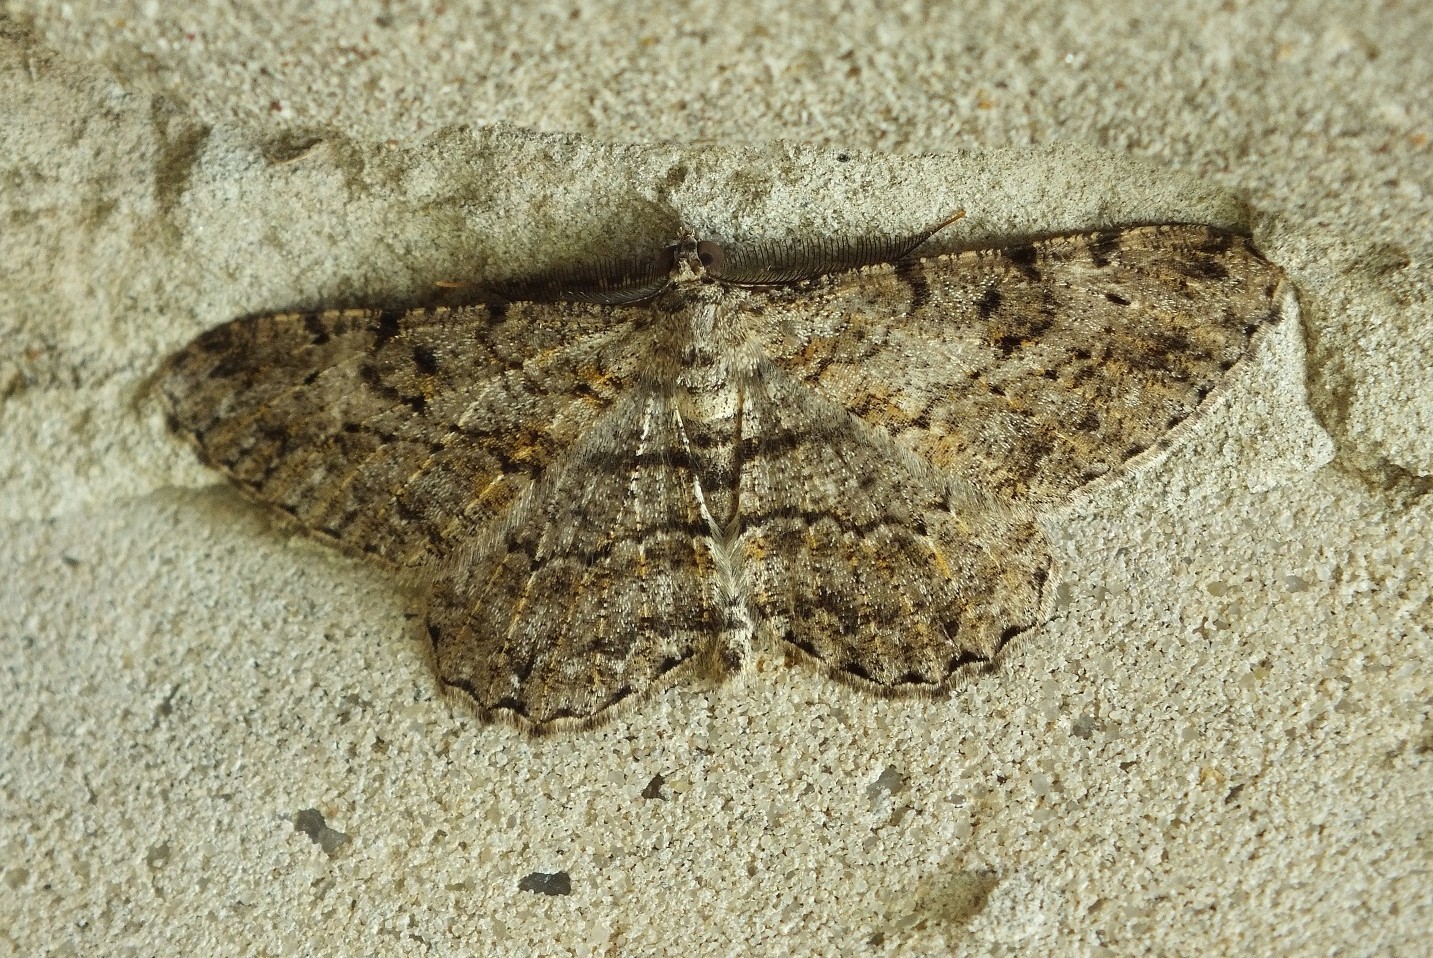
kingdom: Animalia
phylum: Arthropoda
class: Insecta
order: Lepidoptera
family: Geometridae
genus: Peribatodes
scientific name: Peribatodes rhomboidaria
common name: Willow beauty
